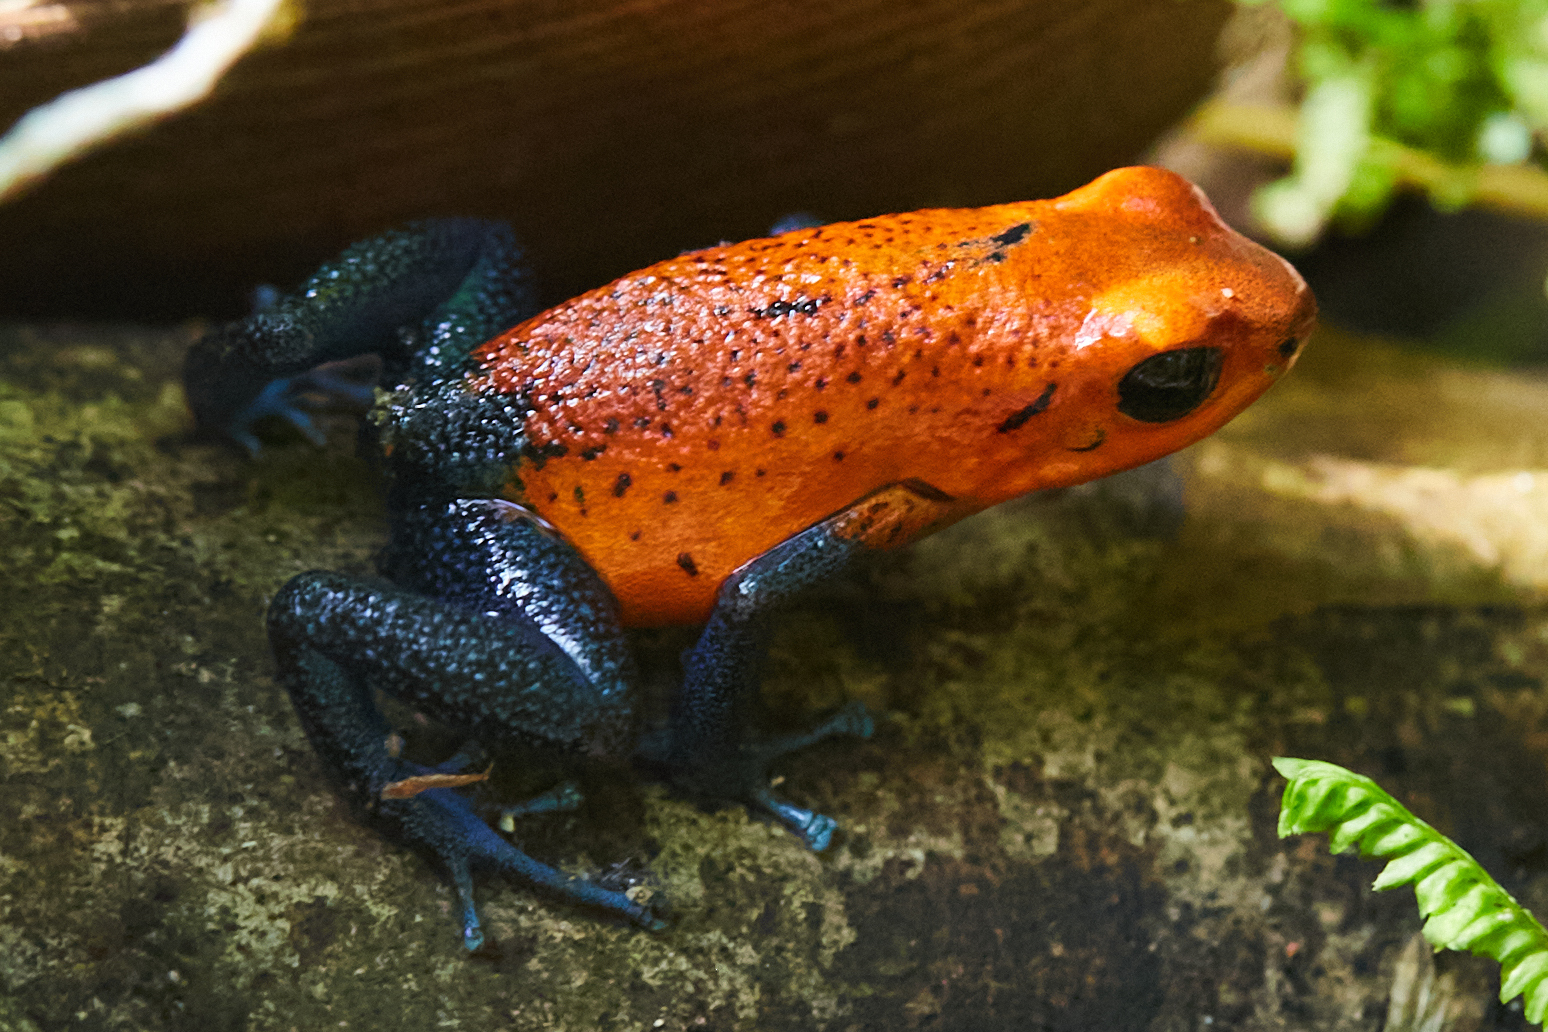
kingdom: Animalia
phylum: Chordata
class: Amphibia
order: Anura
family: Dendrobatidae
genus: Oophaga
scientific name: Oophaga pumilio
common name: Flaming poison frog
